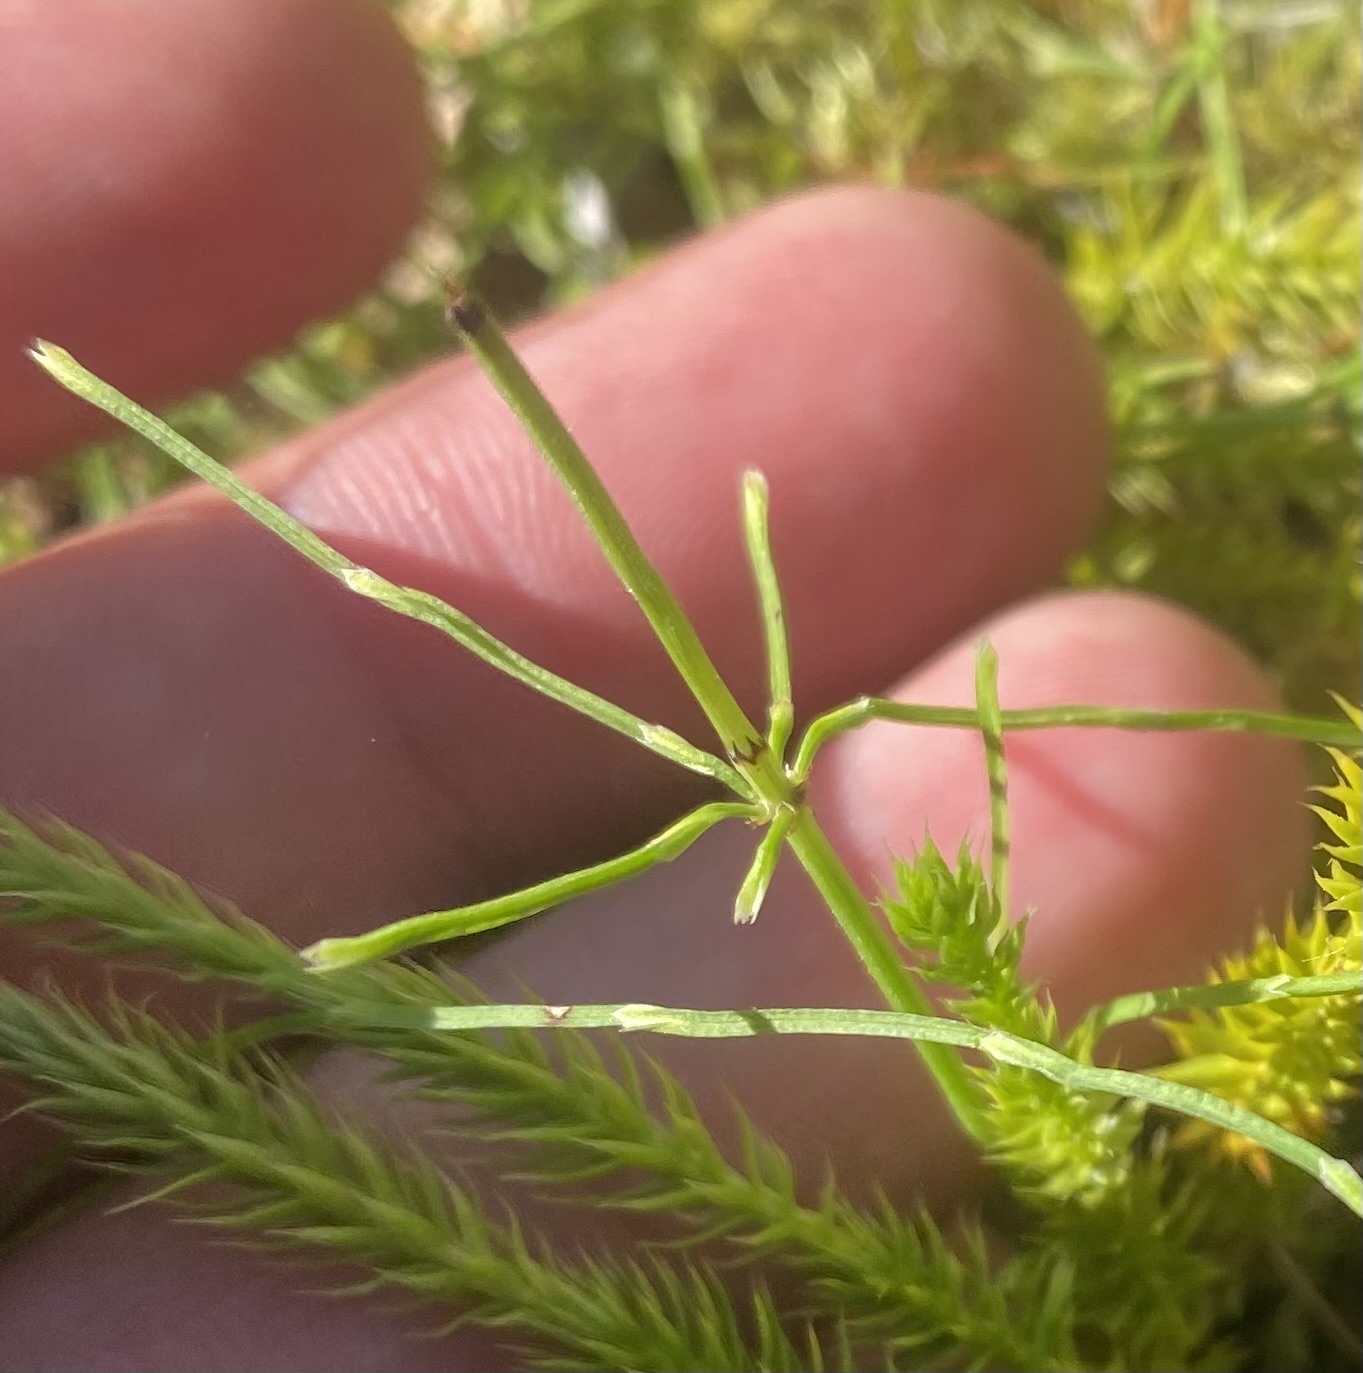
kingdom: Plantae
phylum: Tracheophyta
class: Polypodiopsida
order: Equisetales
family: Equisetaceae
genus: Equisetum
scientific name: Equisetum pratense
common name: Meadow horsetail
